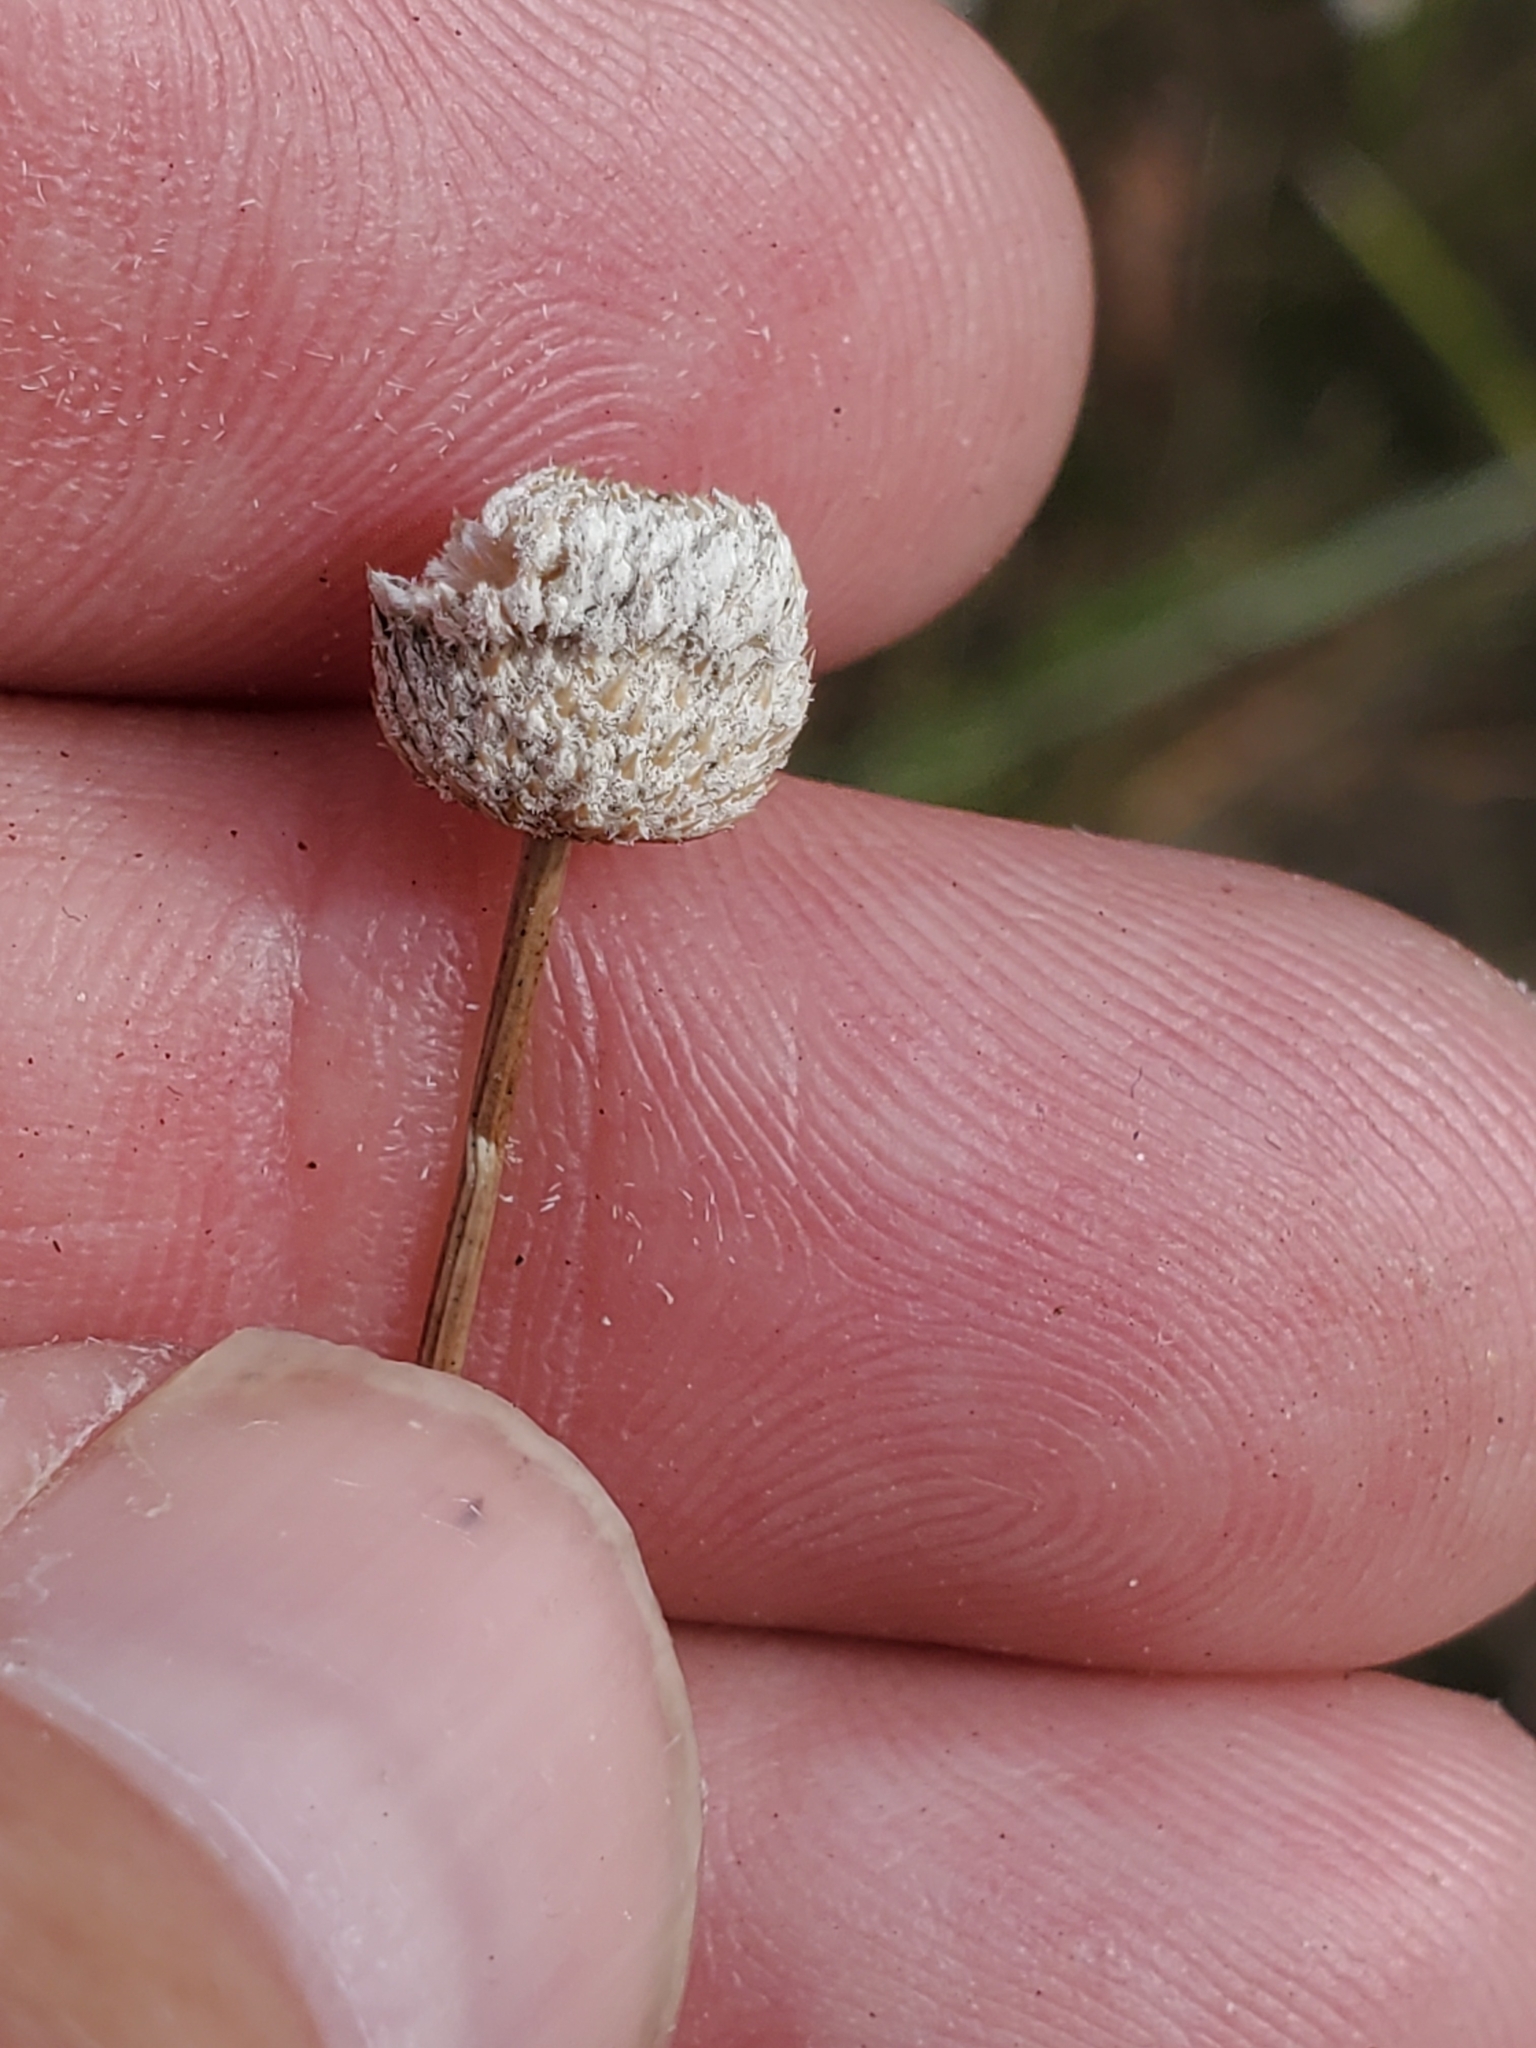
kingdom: Plantae
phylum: Tracheophyta
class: Liliopsida
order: Poales
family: Eriocaulaceae
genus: Eriocaulon
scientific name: Eriocaulon decangulare
